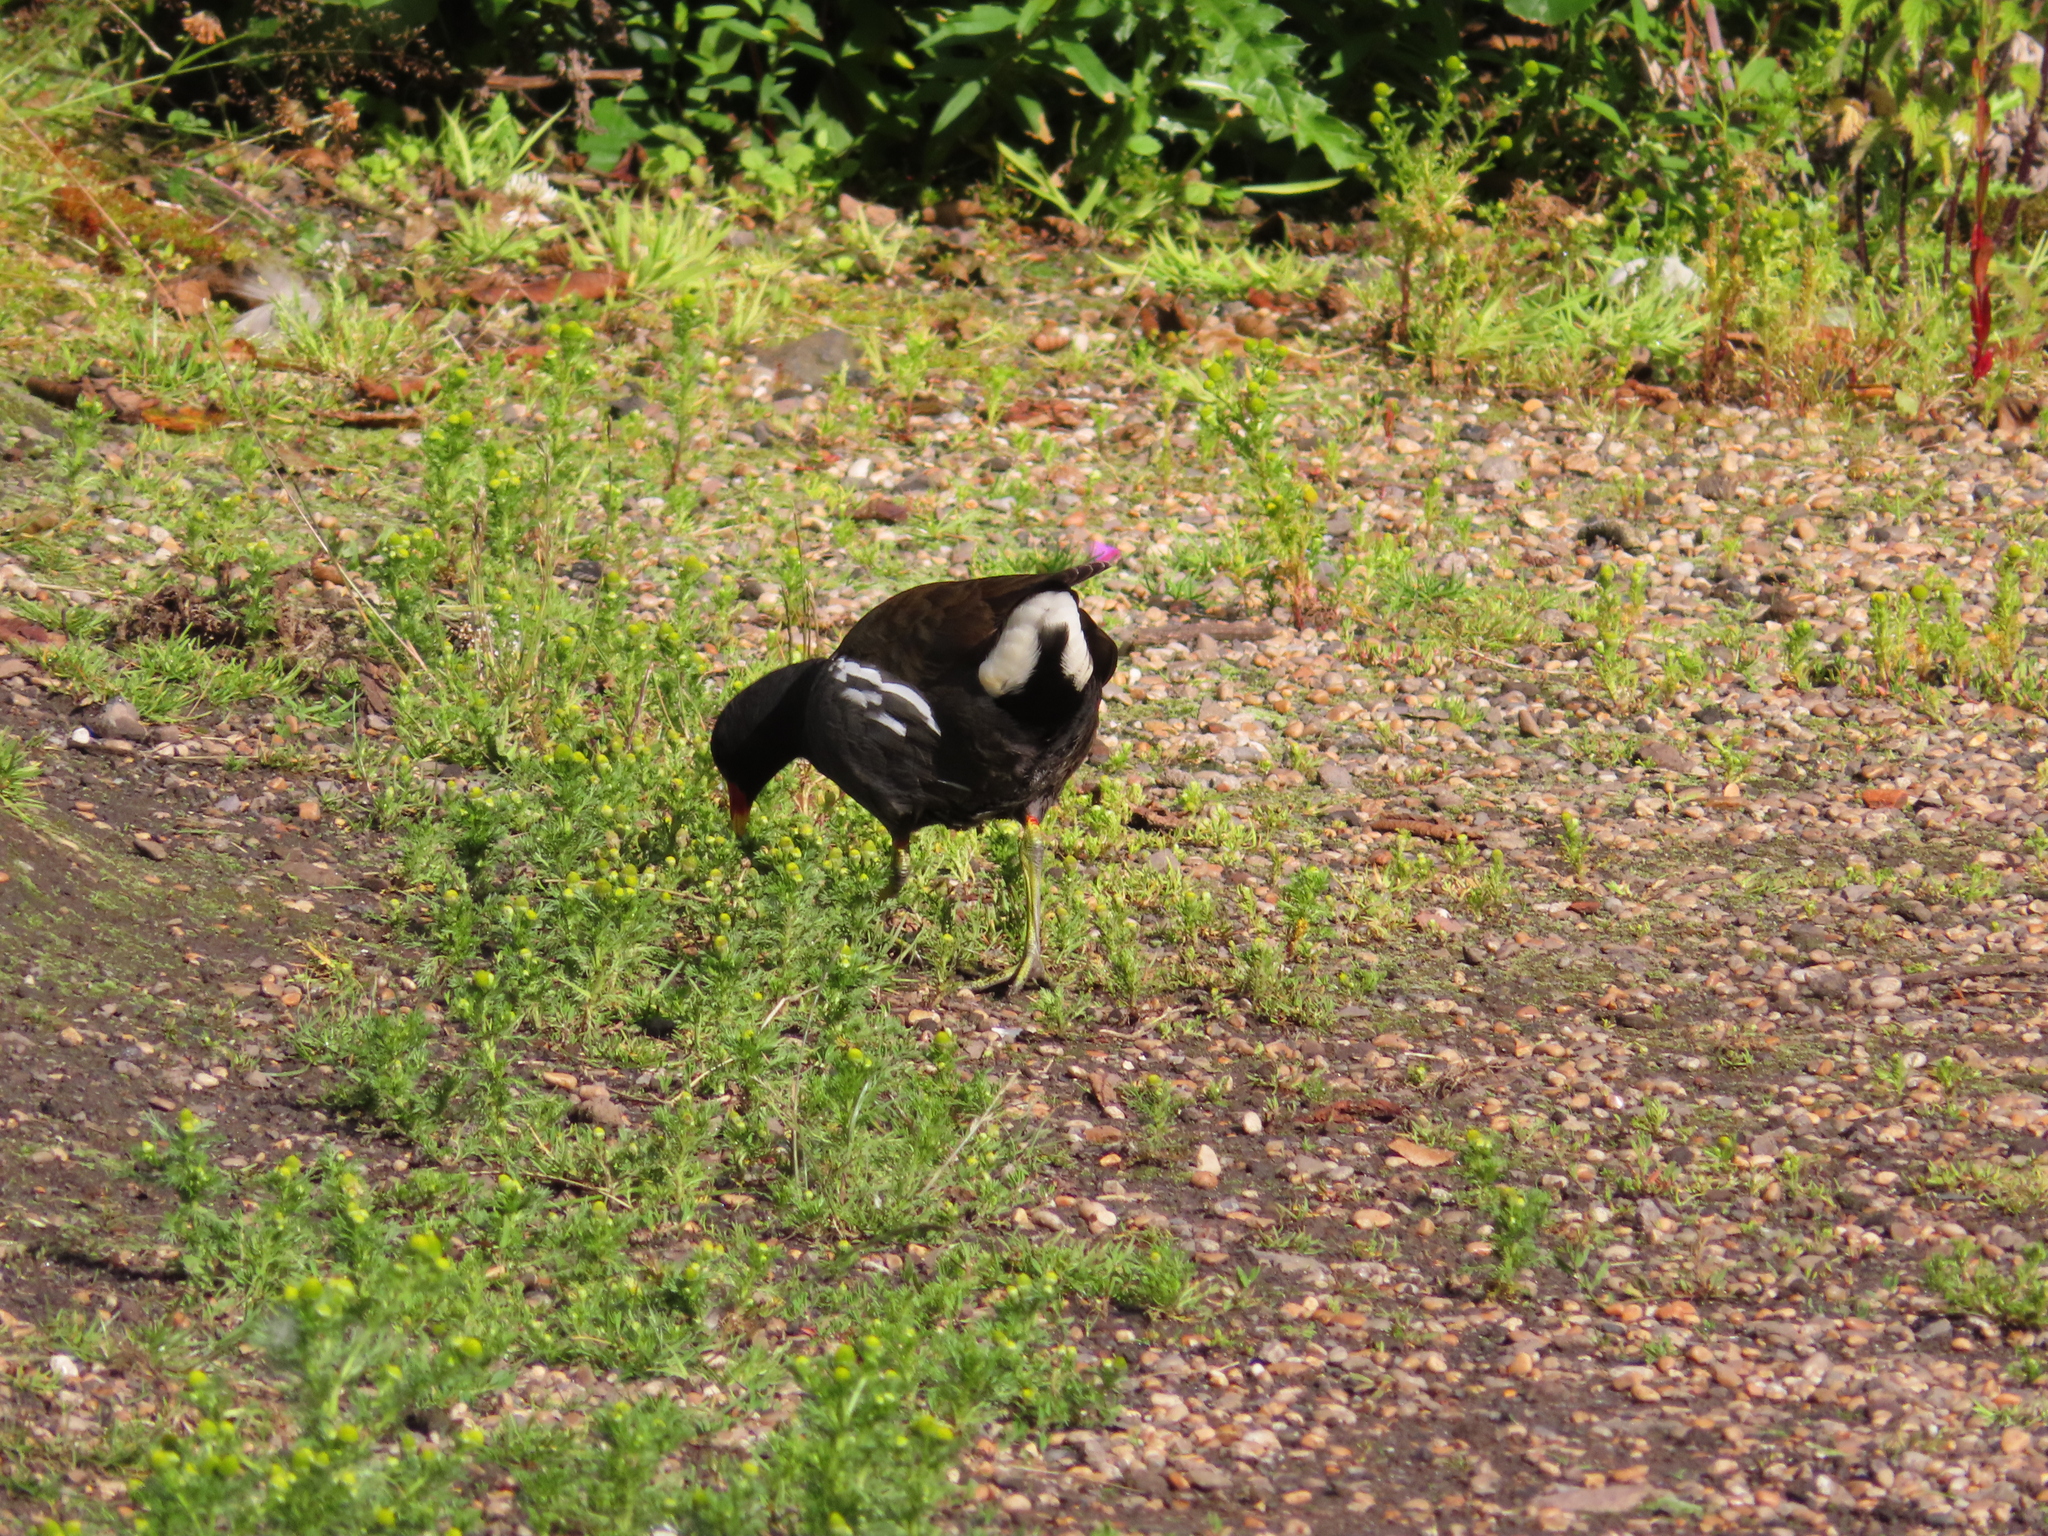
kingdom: Animalia
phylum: Chordata
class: Aves
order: Gruiformes
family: Rallidae
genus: Gallinula
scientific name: Gallinula chloropus
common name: Common moorhen
